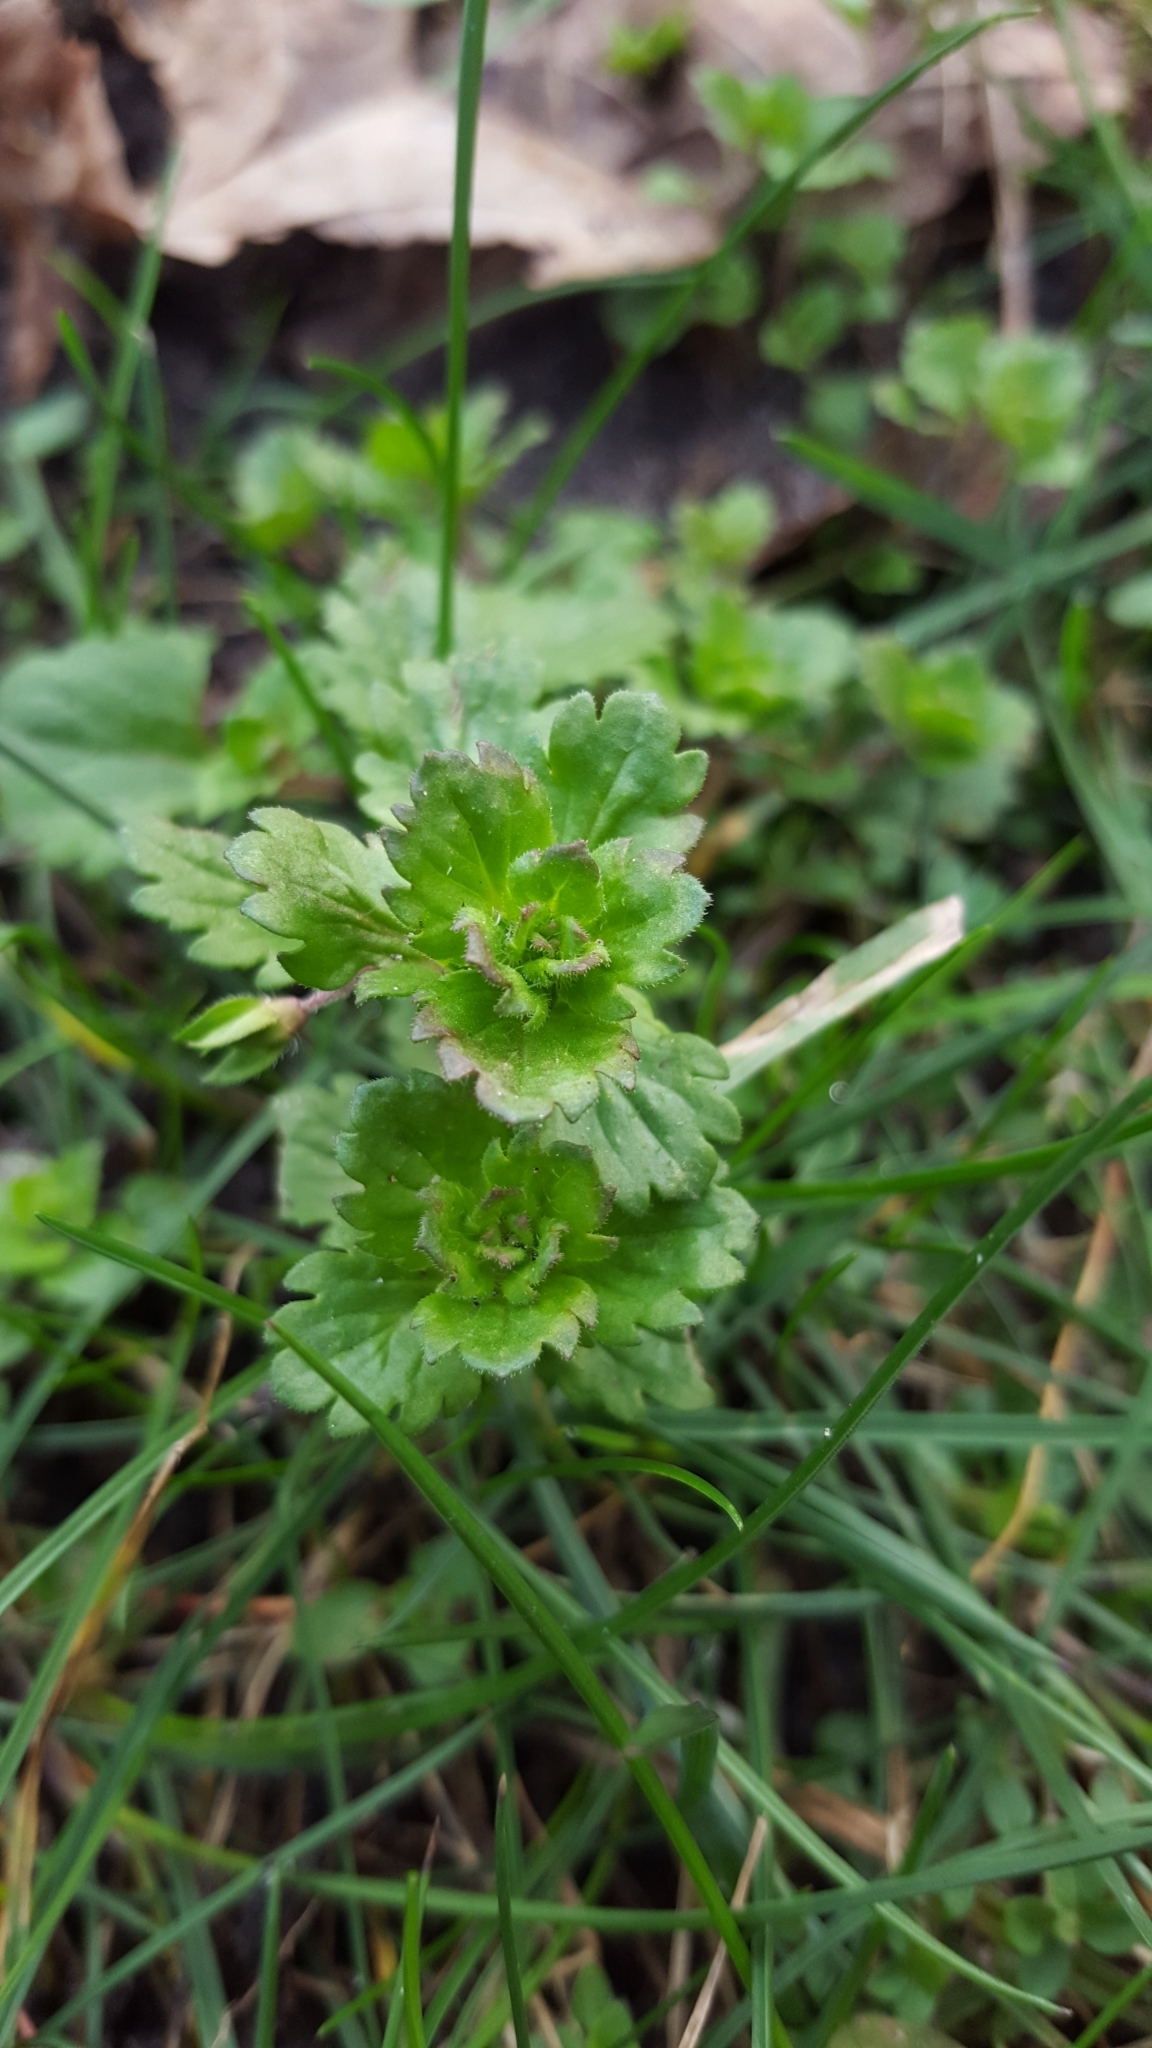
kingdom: Plantae
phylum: Tracheophyta
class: Magnoliopsida
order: Lamiales
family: Plantaginaceae
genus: Veronica
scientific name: Veronica persica
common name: Common field-speedwell
